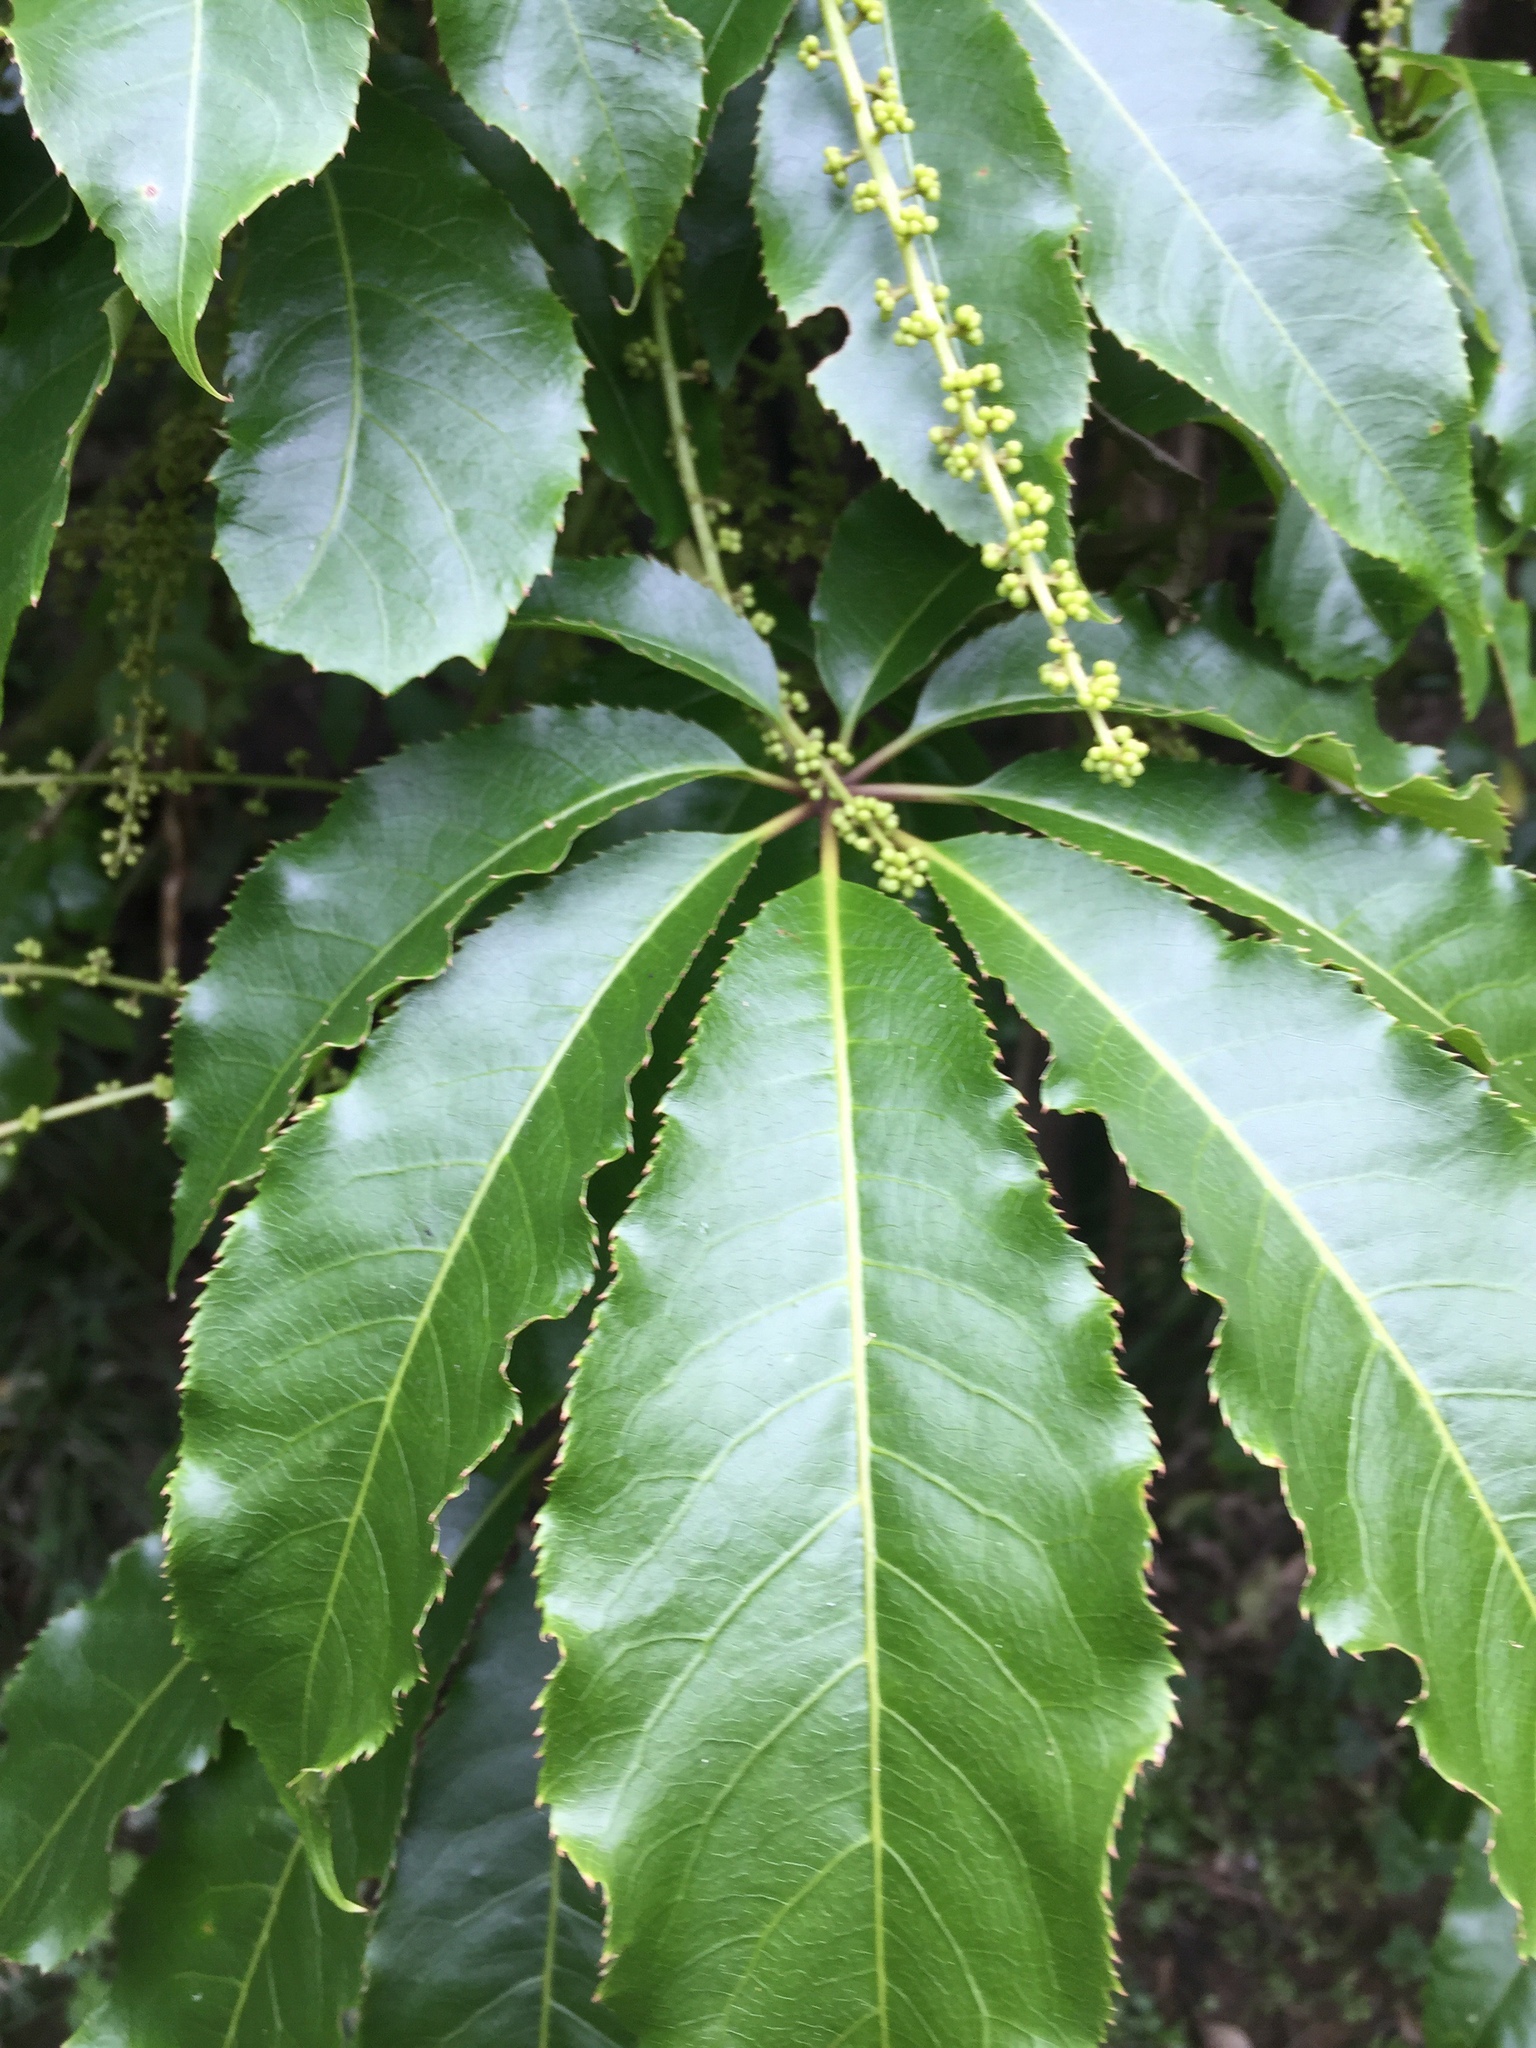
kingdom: Plantae
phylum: Tracheophyta
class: Magnoliopsida
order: Apiales
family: Araliaceae
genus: Schefflera
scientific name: Schefflera digitata
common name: Pate
